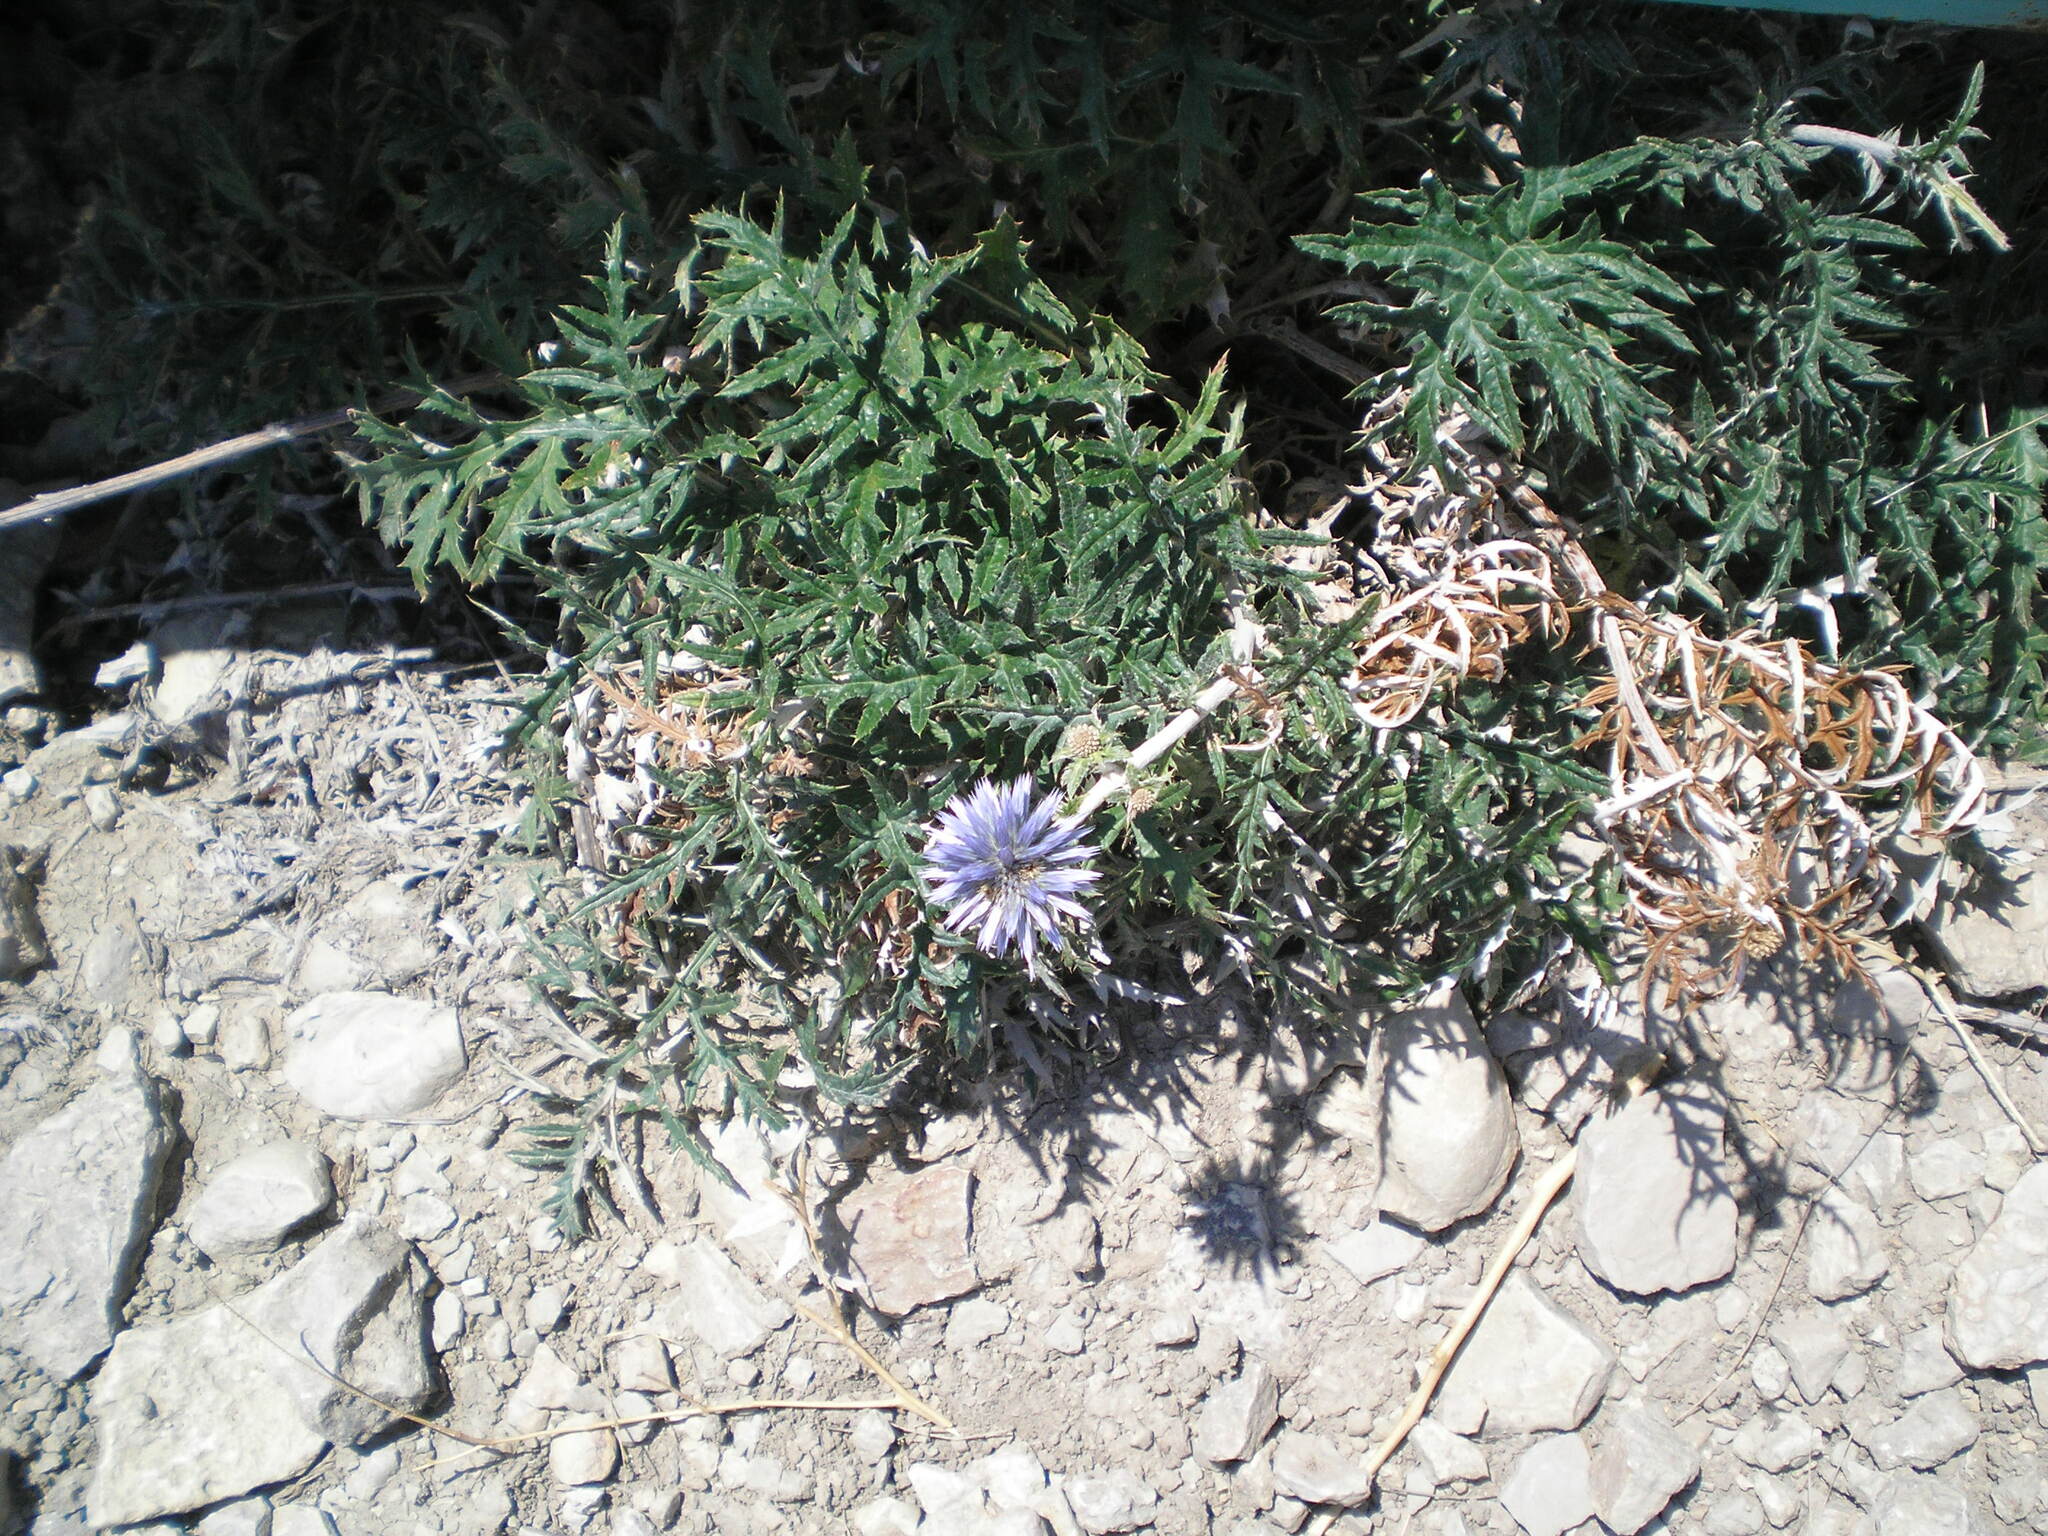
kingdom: Plantae
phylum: Tracheophyta
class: Magnoliopsida
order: Asterales
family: Asteraceae
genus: Echinops
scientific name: Echinops ritro
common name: Globe thistle
